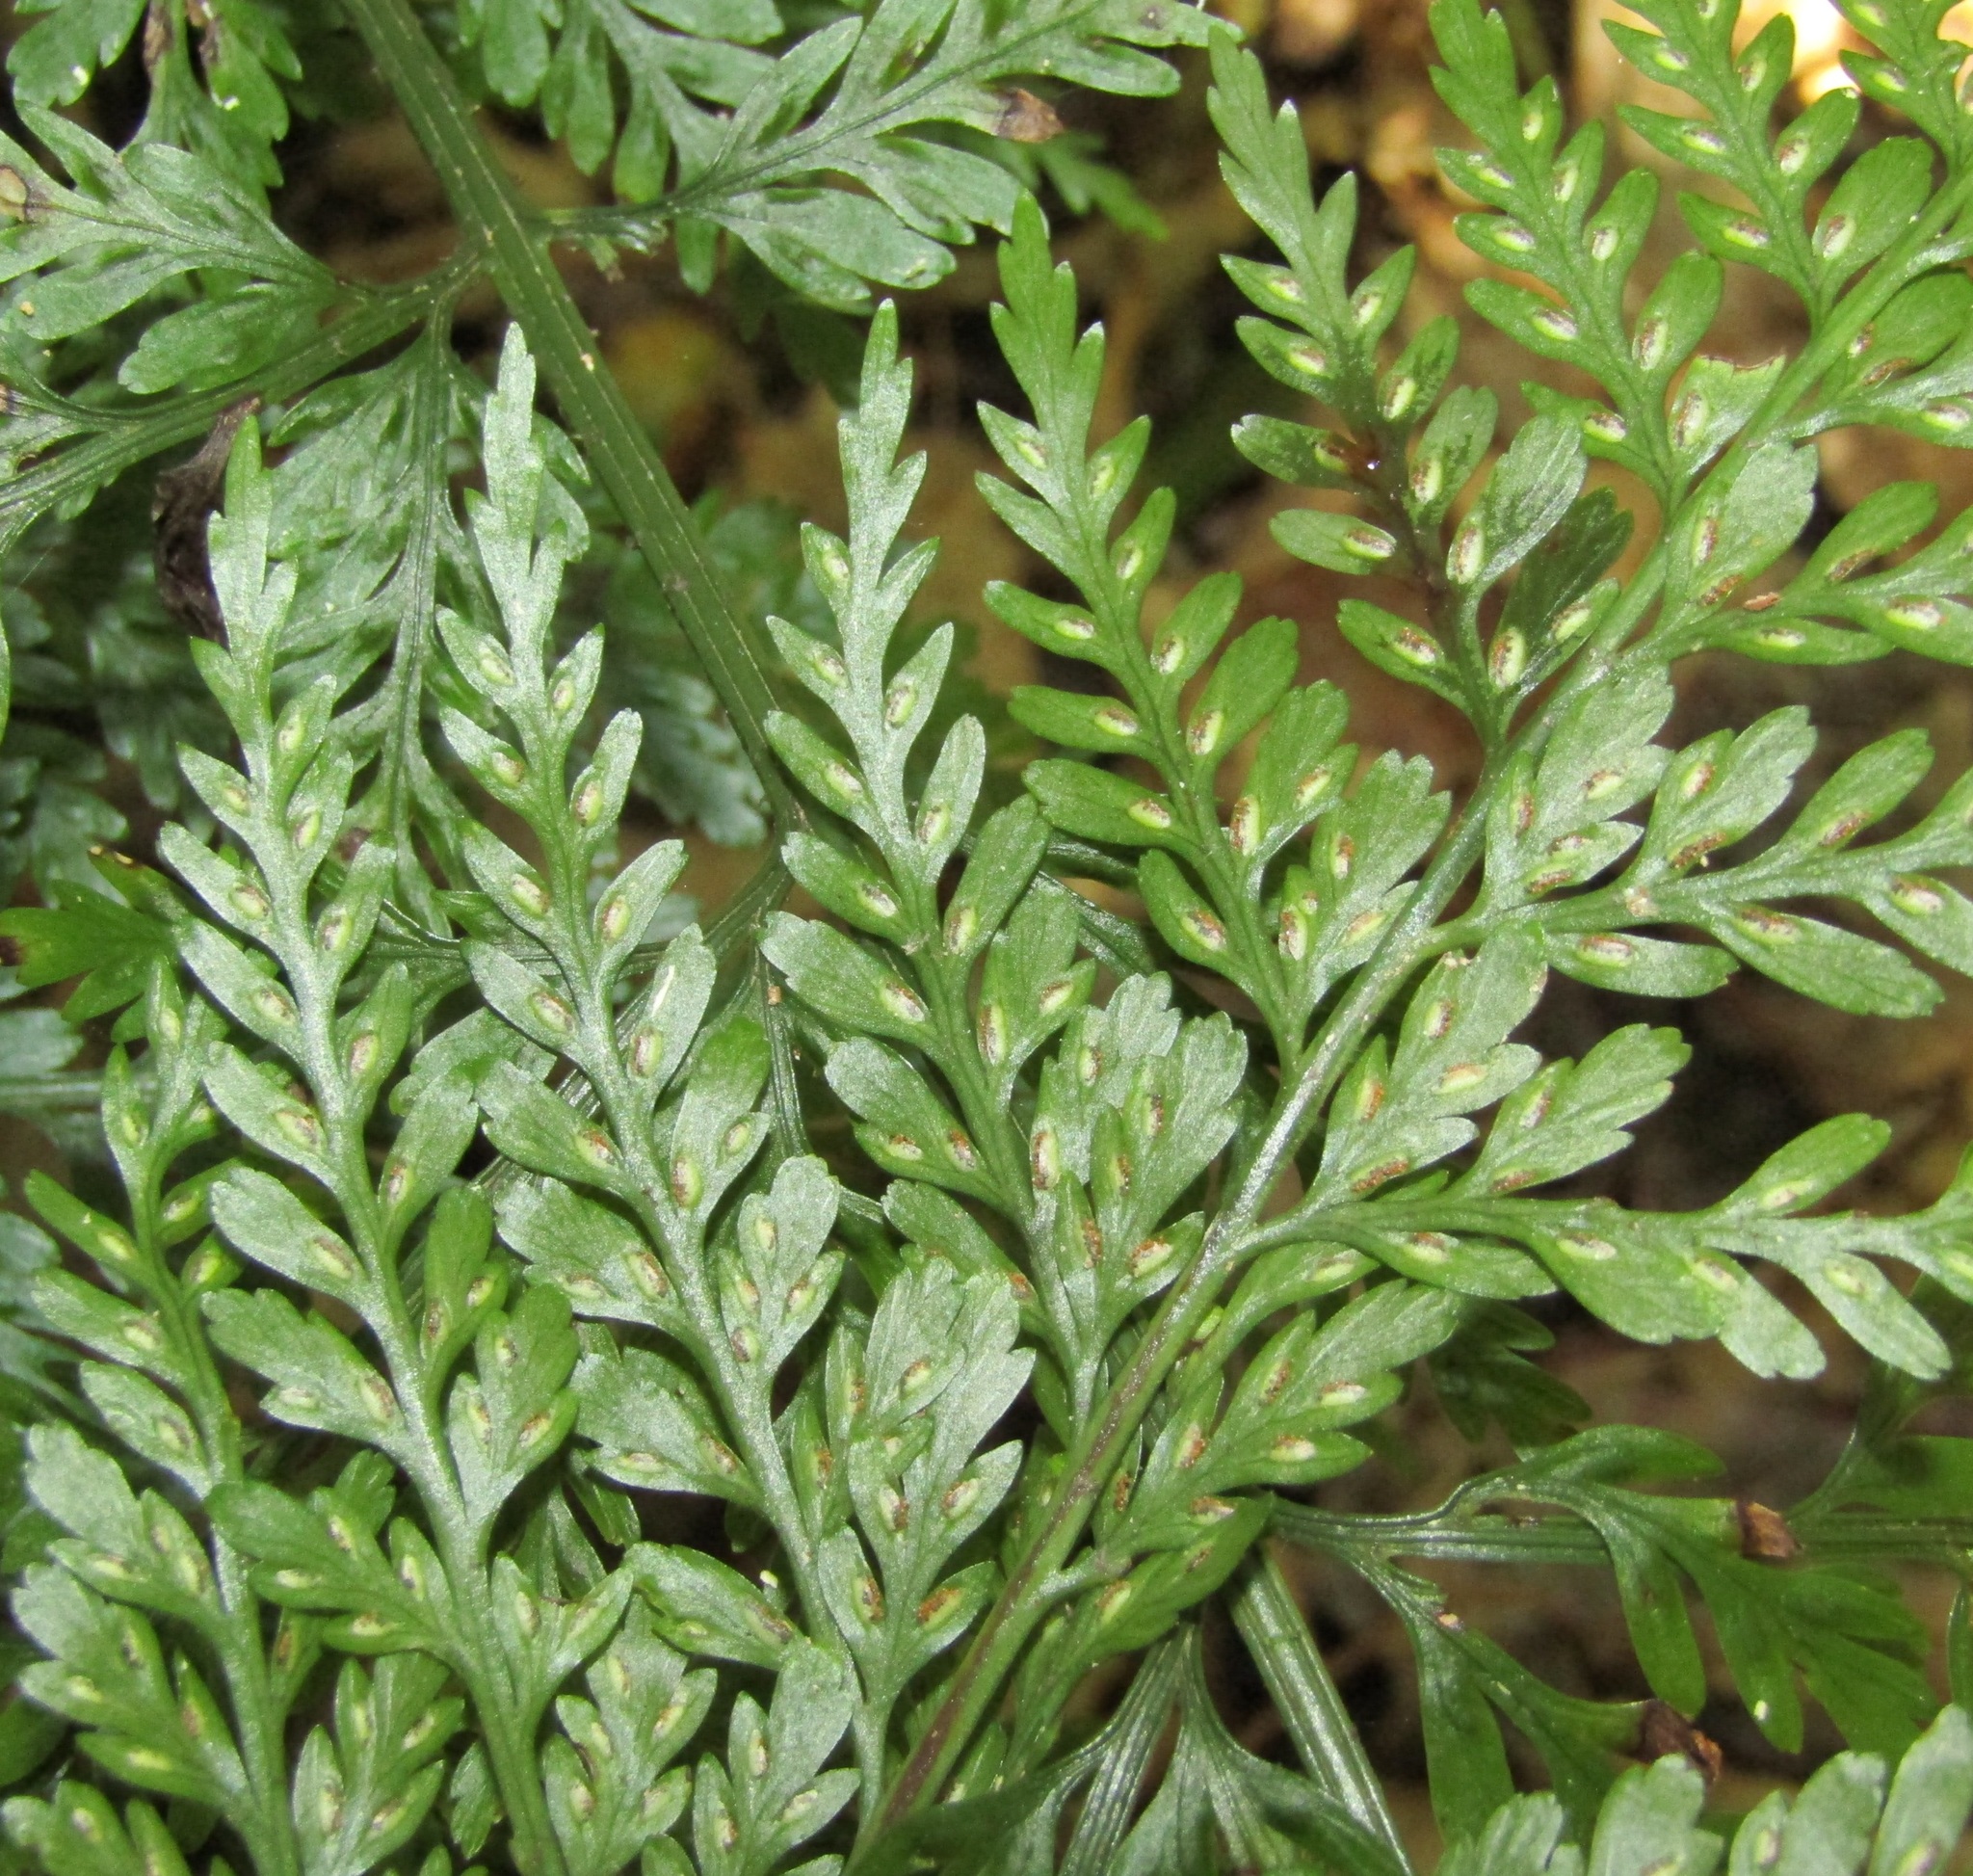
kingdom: Plantae
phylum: Tracheophyta
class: Polypodiopsida
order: Polypodiales
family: Aspleniaceae
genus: Asplenium
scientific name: Asplenium
